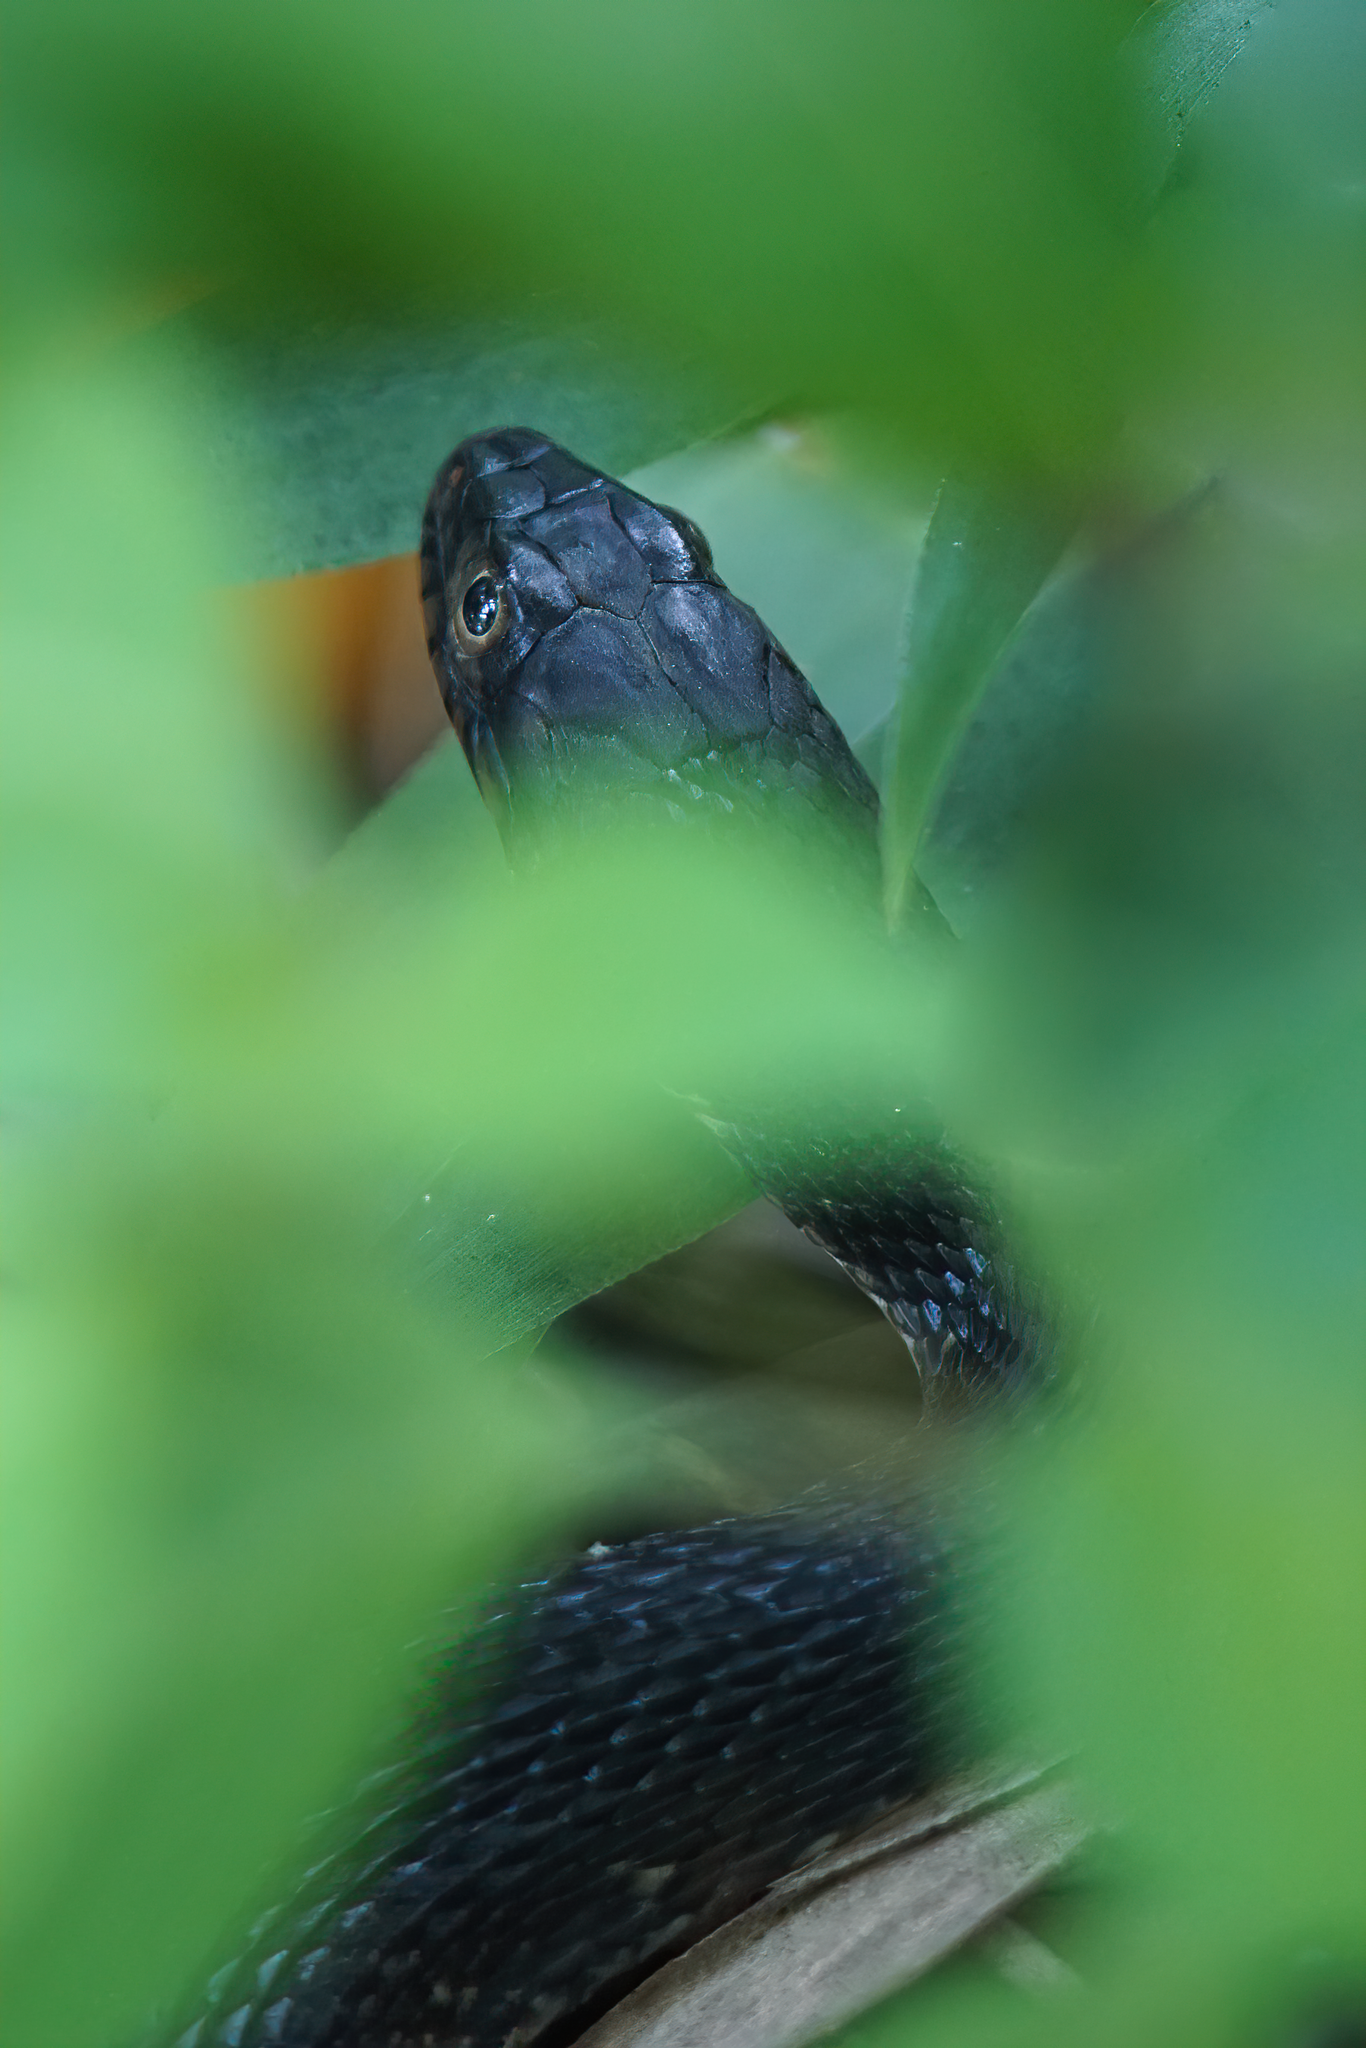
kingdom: Animalia
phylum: Chordata
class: Squamata
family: Colubridae
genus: Nerodia
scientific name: Nerodia fasciata
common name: Southern water snake
